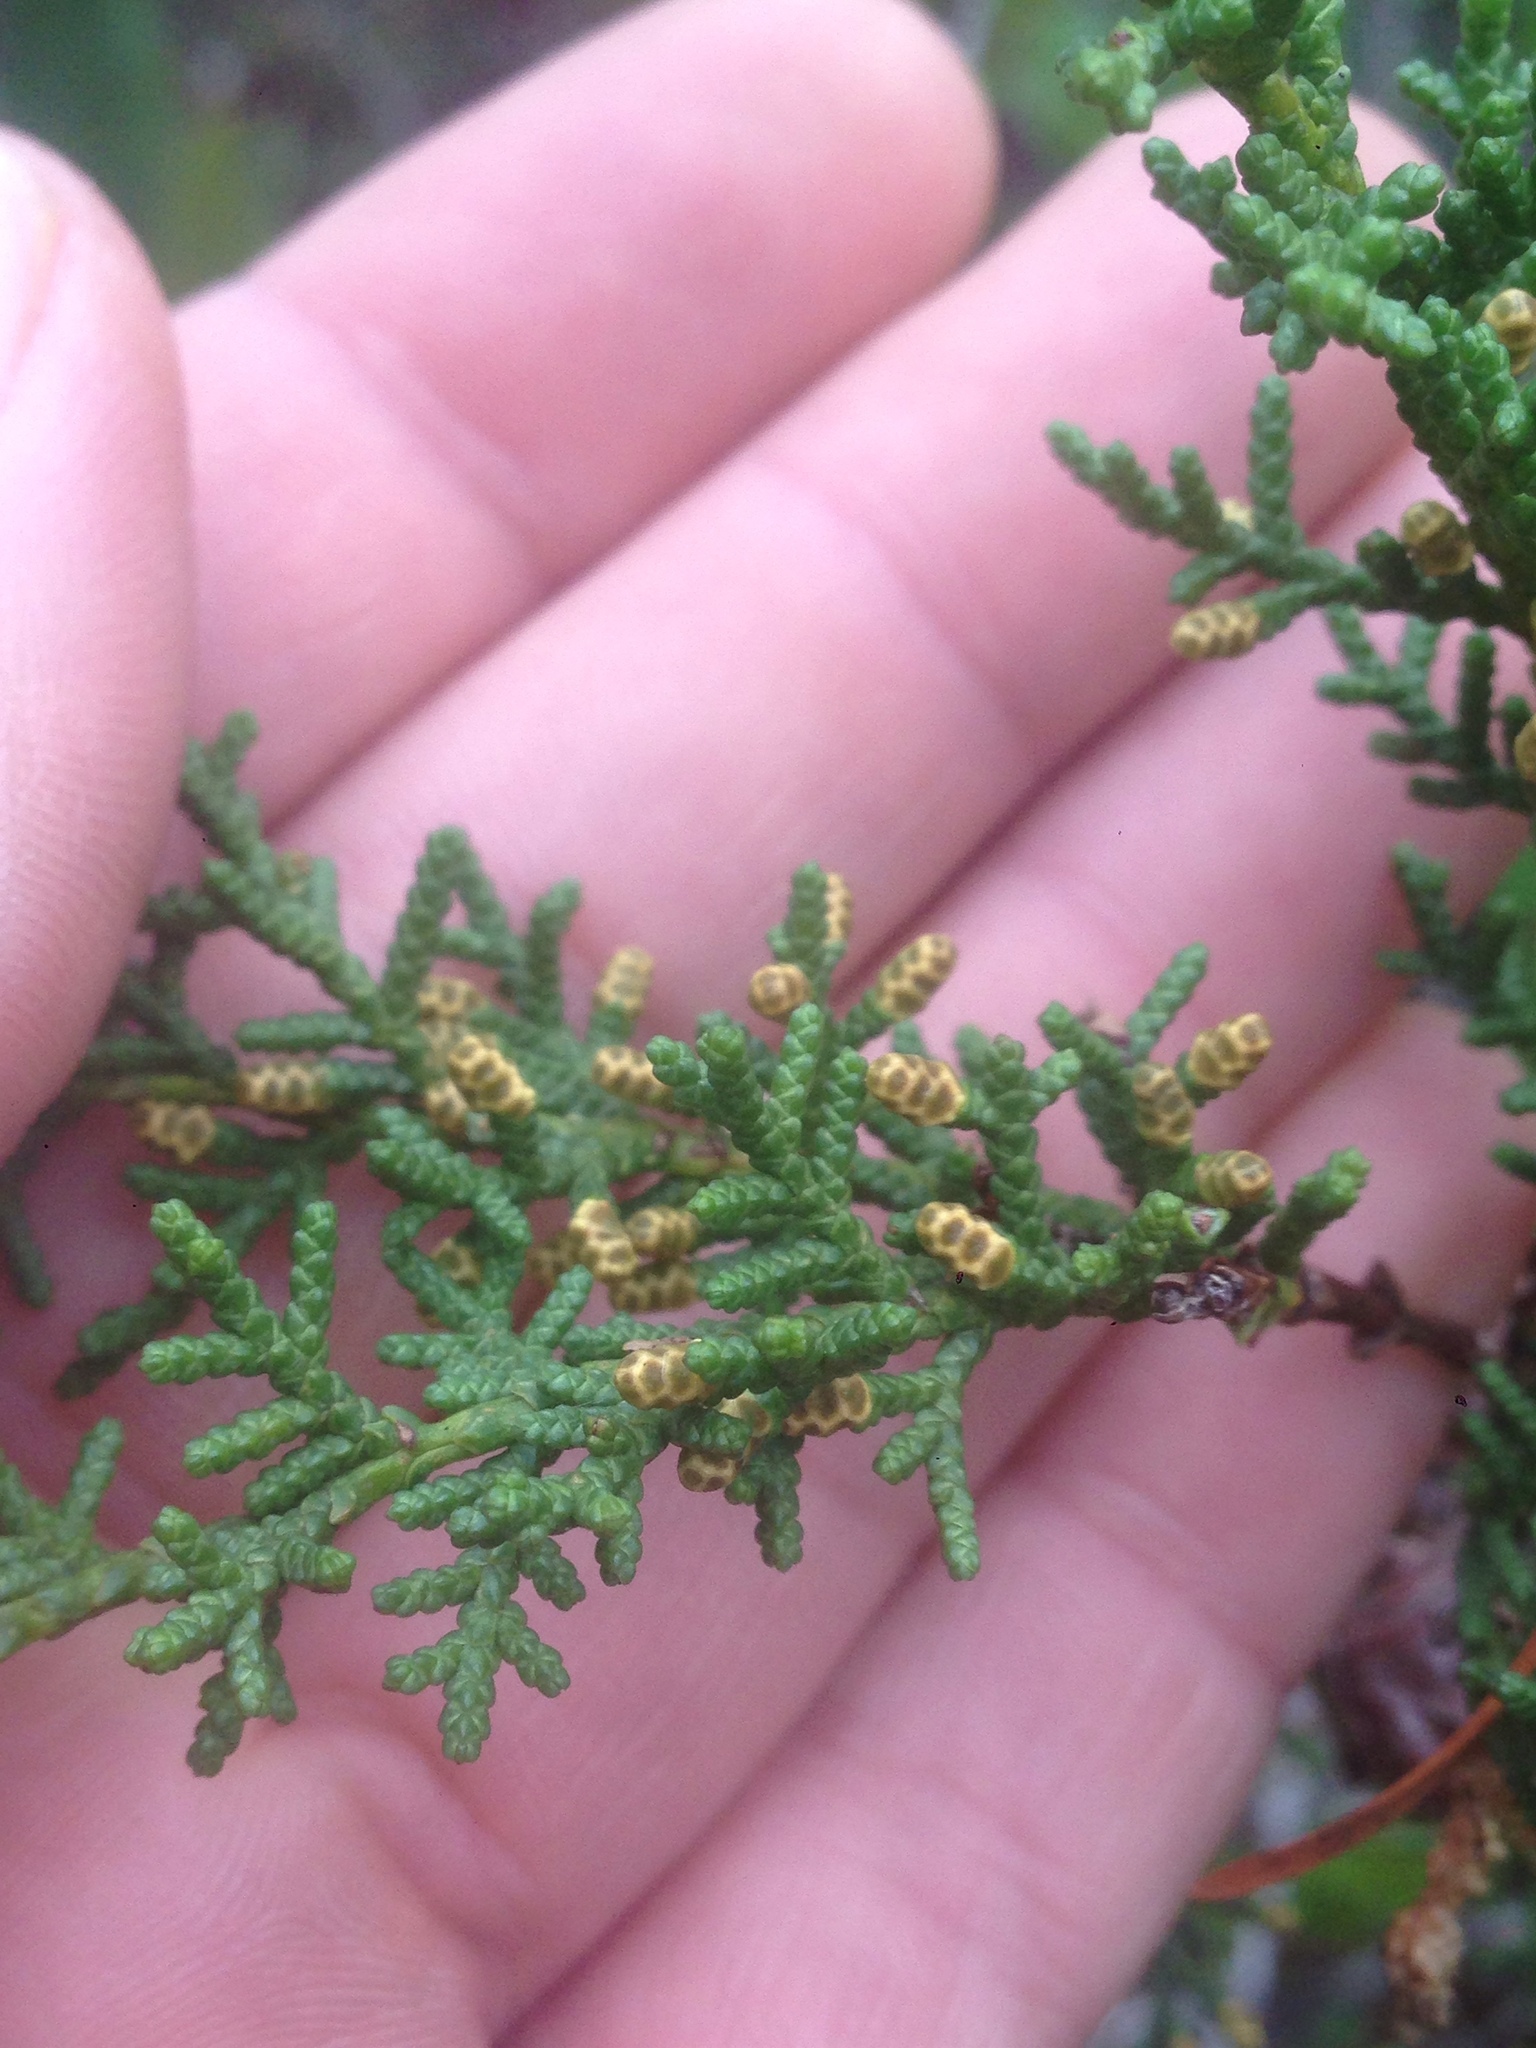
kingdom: Plantae
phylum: Tracheophyta
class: Pinopsida
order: Pinales
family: Cupressaceae
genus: Cupressus
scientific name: Cupressus goveniana
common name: Gowen cypress
